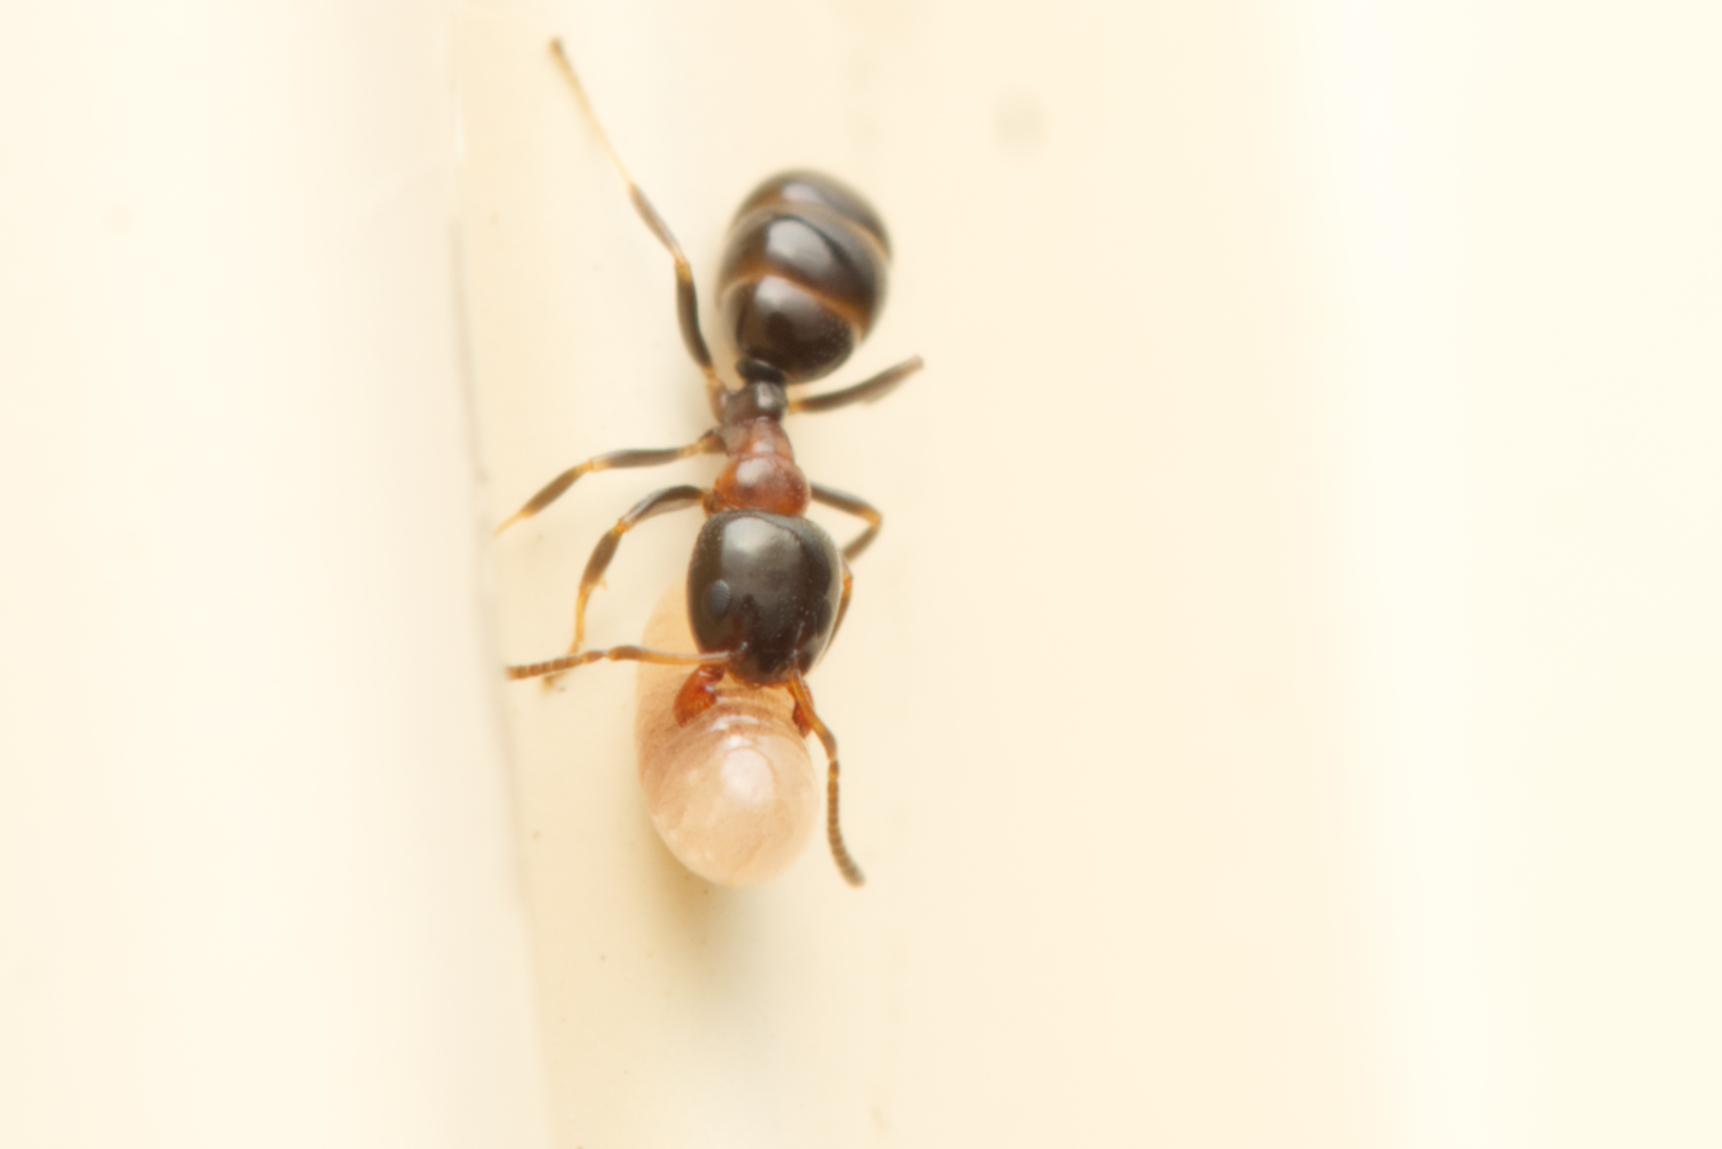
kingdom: Animalia
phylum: Arthropoda
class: Insecta
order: Hymenoptera
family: Formicidae
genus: Ochetellus
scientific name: Ochetellus glaber
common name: Ant
